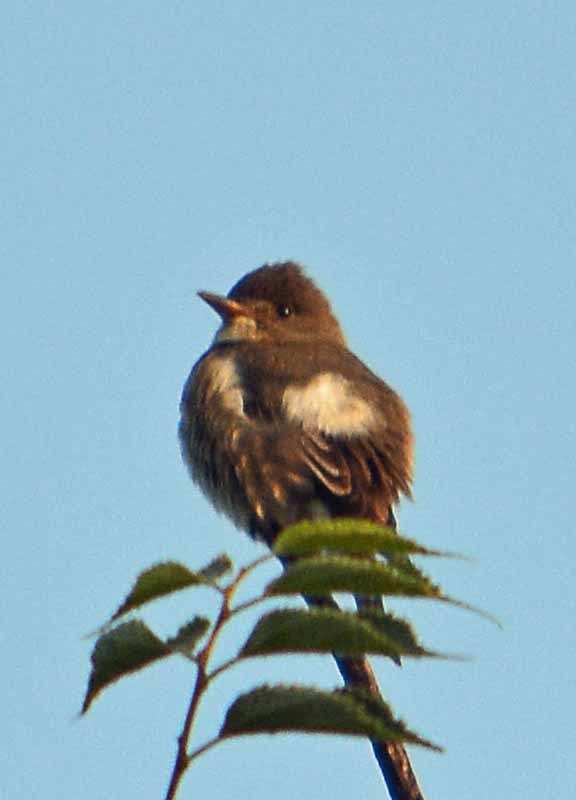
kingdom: Animalia
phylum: Chordata
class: Aves
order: Passeriformes
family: Tyrannidae
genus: Contopus
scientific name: Contopus cooperi
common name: Olive-sided flycatcher
